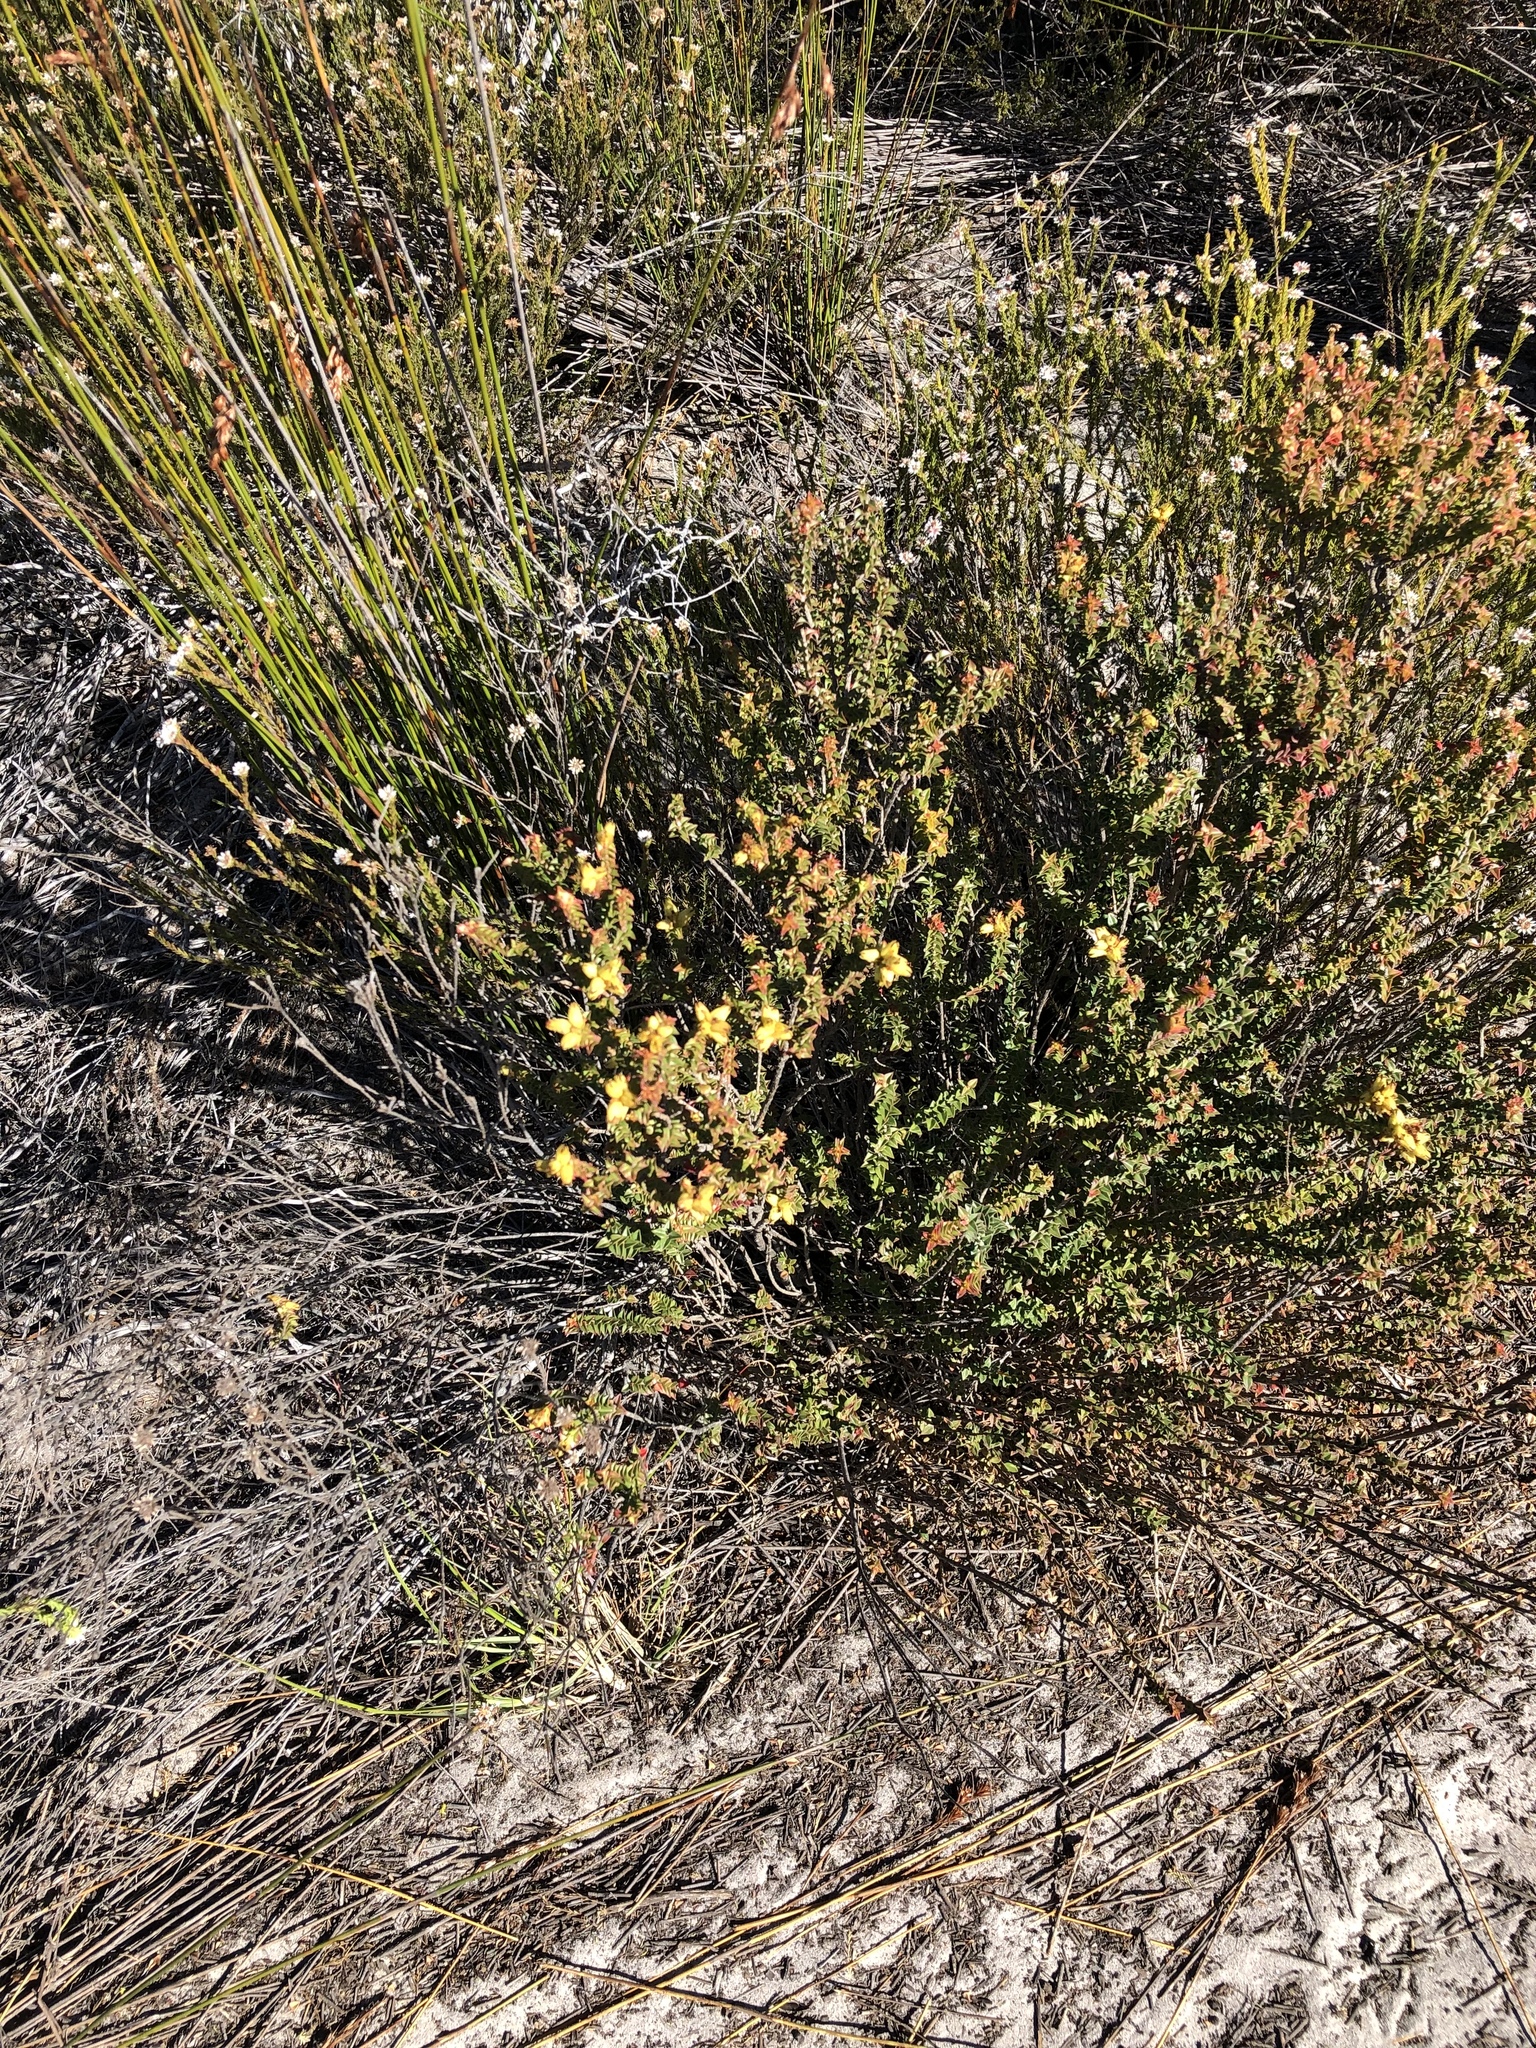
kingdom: Plantae
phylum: Tracheophyta
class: Magnoliopsida
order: Myrtales
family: Penaeaceae
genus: Penaea
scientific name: Penaea cneorum
